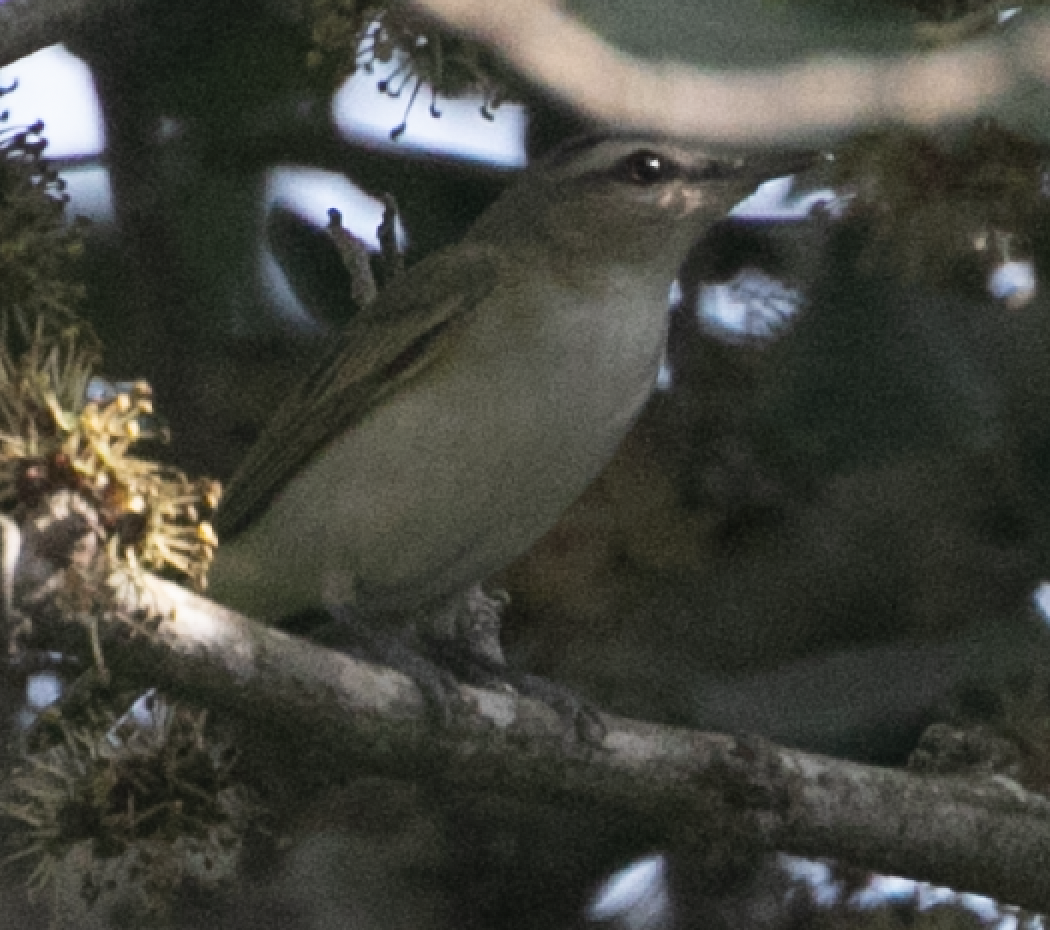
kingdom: Animalia
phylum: Chordata
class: Aves
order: Passeriformes
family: Vireonidae
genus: Vireo
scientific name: Vireo olivaceus
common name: Red-eyed vireo
